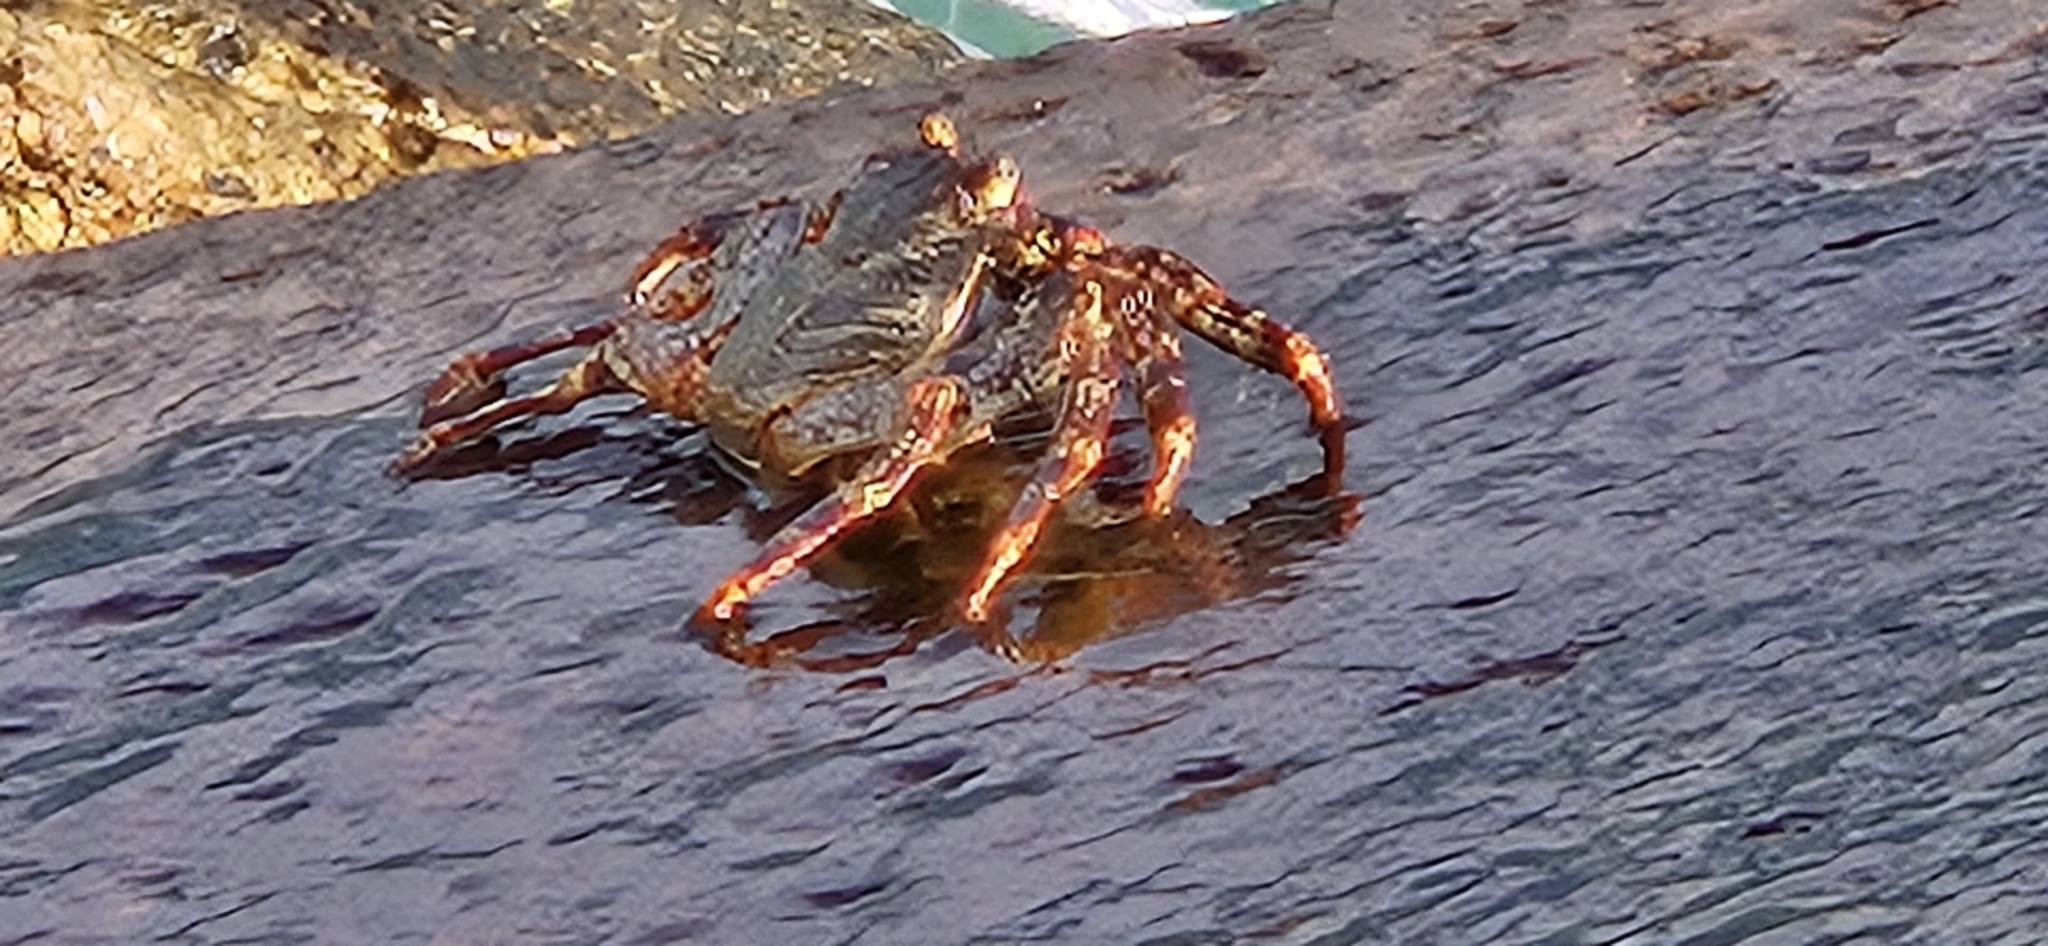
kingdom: Animalia
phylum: Arthropoda
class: Malacostraca
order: Decapoda
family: Grapsidae
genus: Grapsus
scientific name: Grapsus grapsus
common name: Sally lightfoot
